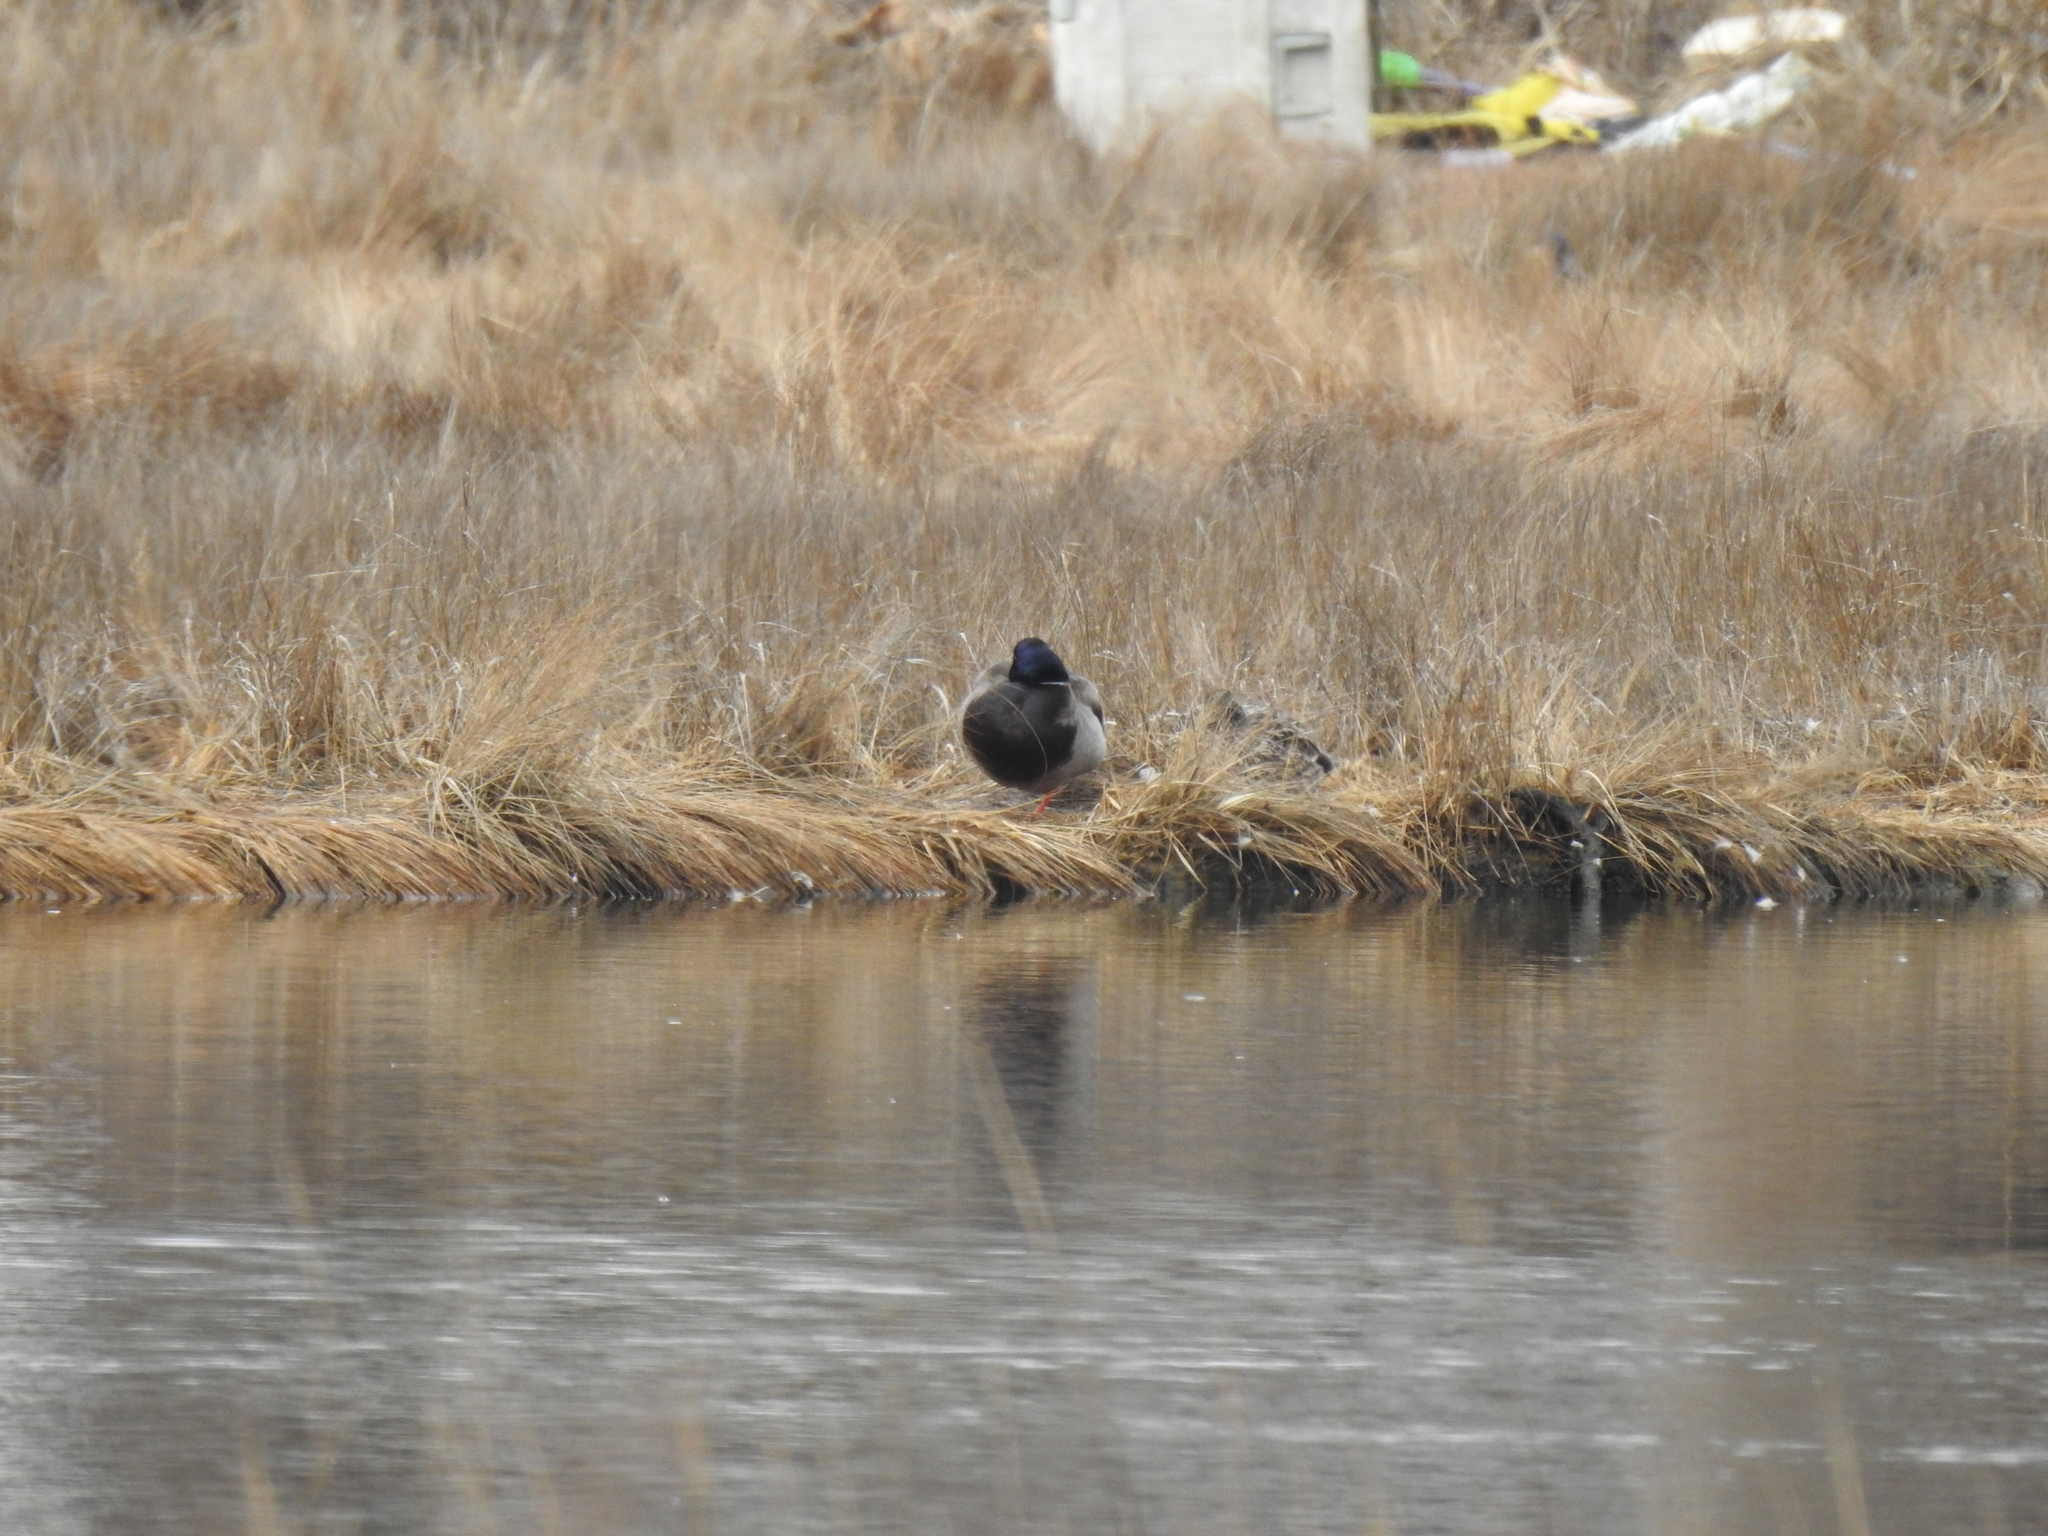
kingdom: Animalia
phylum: Chordata
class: Aves
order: Anseriformes
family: Anatidae
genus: Anas
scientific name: Anas platyrhynchos
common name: Mallard
